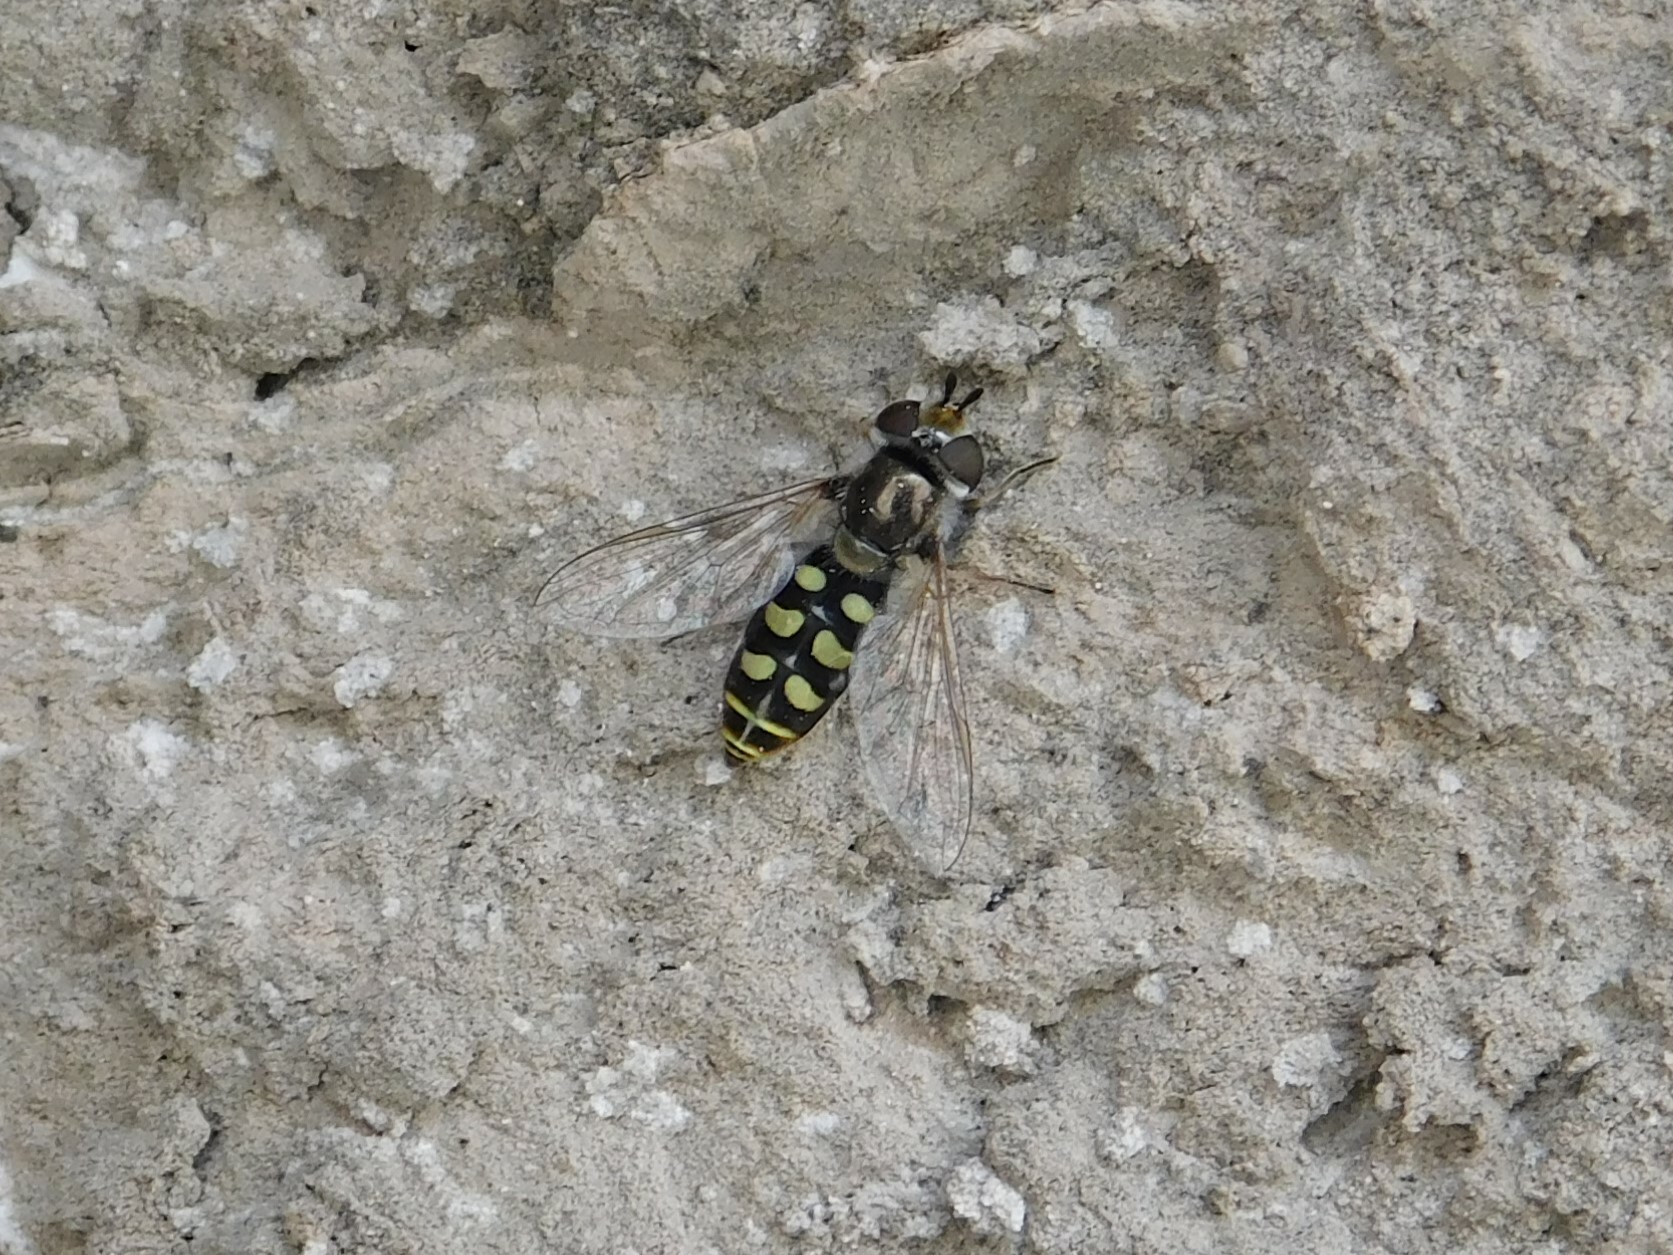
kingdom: Animalia
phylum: Arthropoda
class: Insecta
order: Diptera
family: Syrphidae
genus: Austroscaeva
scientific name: Austroscaeva occidentalis
